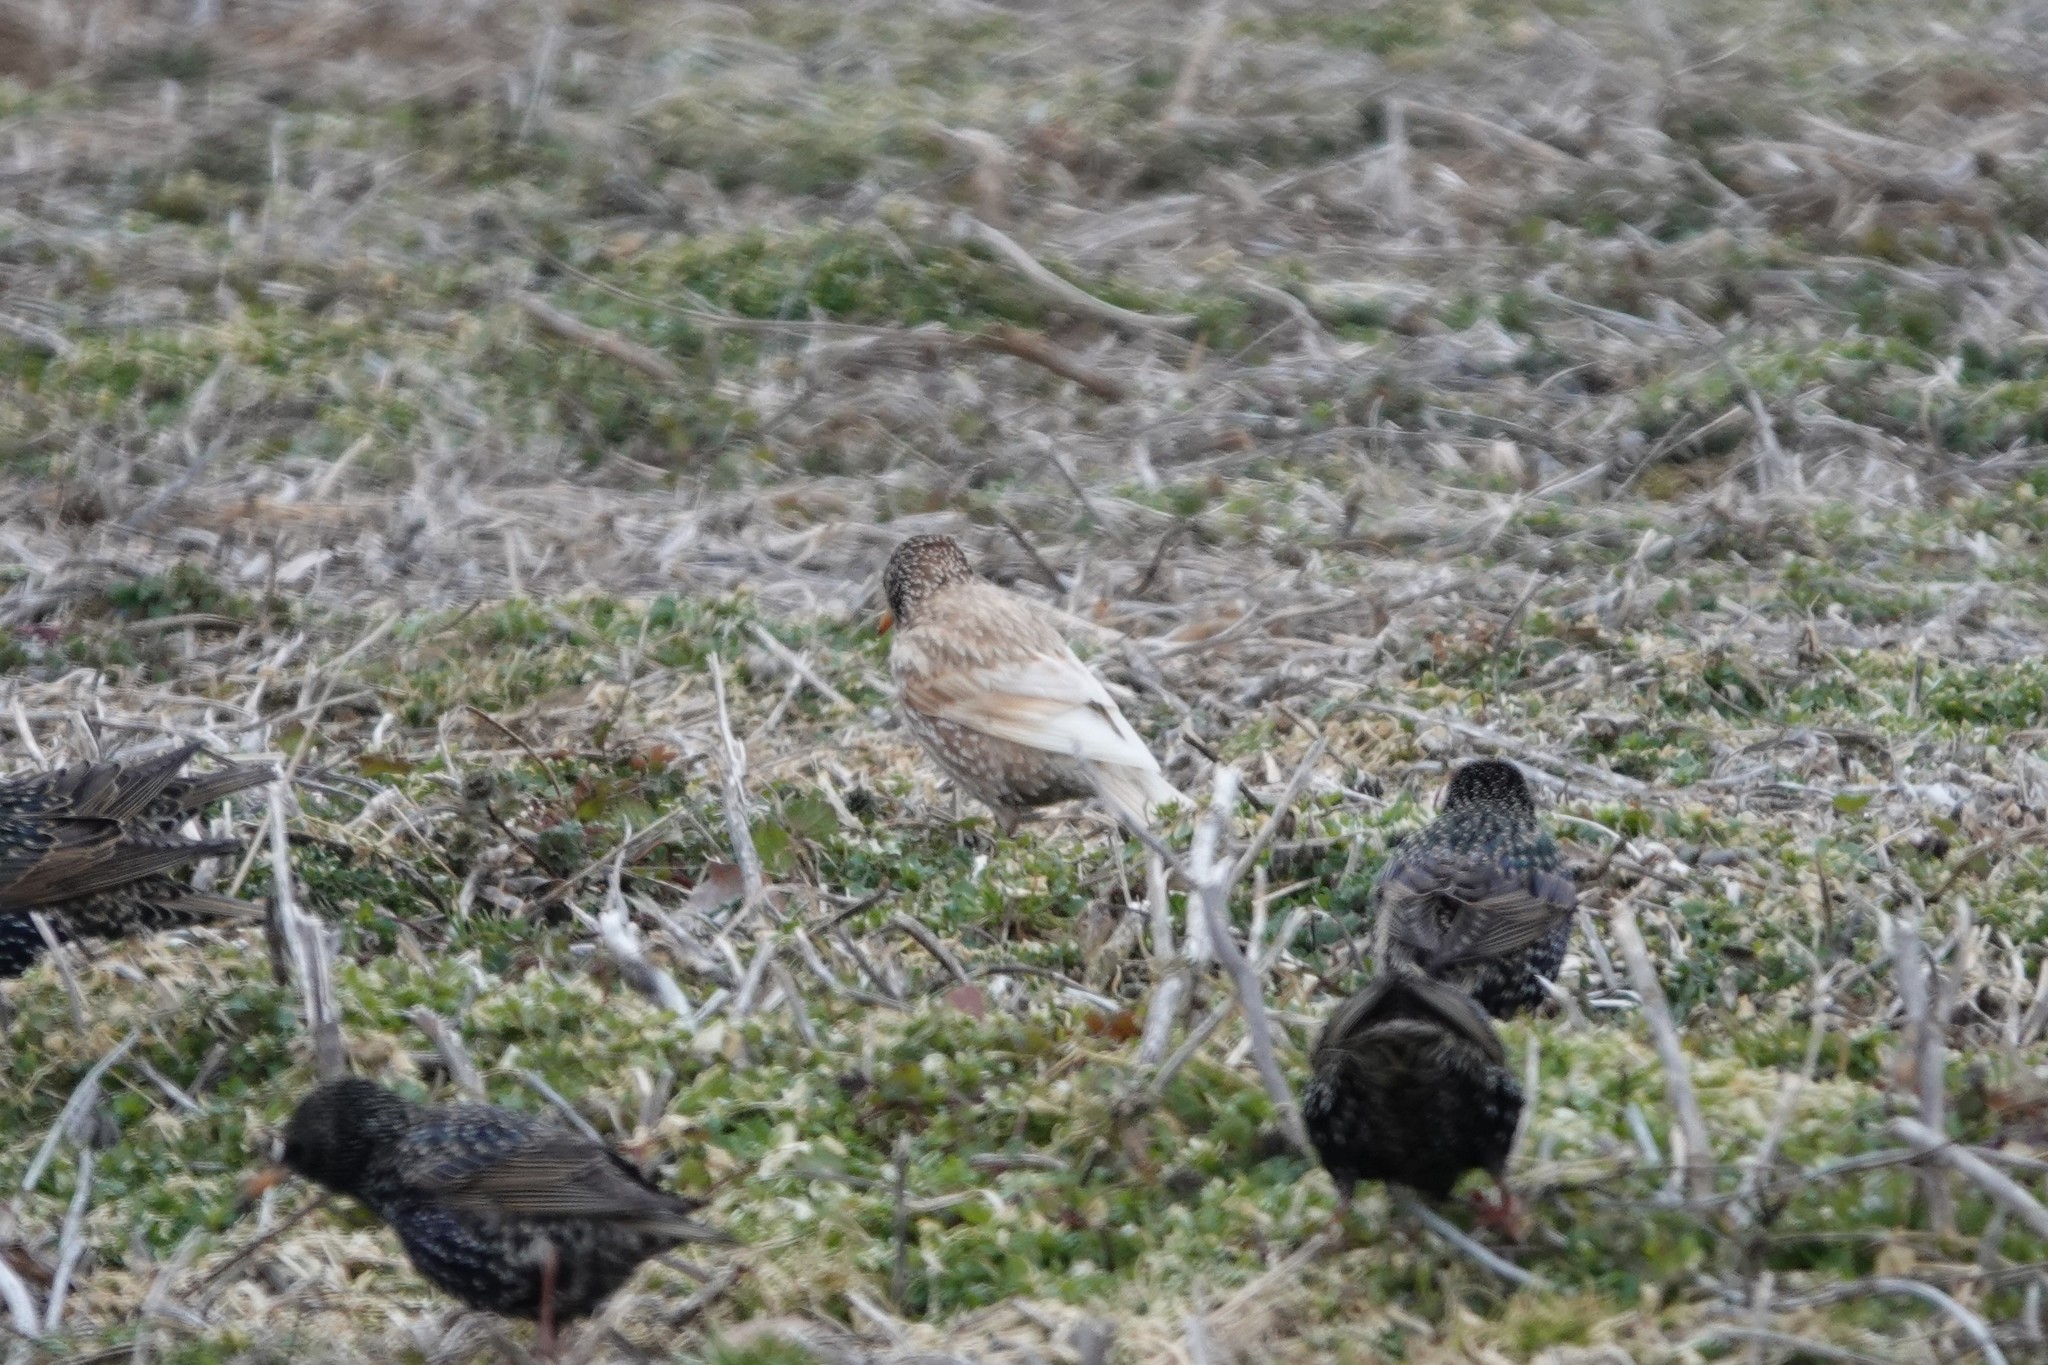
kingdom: Animalia
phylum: Chordata
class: Aves
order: Passeriformes
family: Sturnidae
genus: Sturnus
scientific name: Sturnus vulgaris
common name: Common starling
